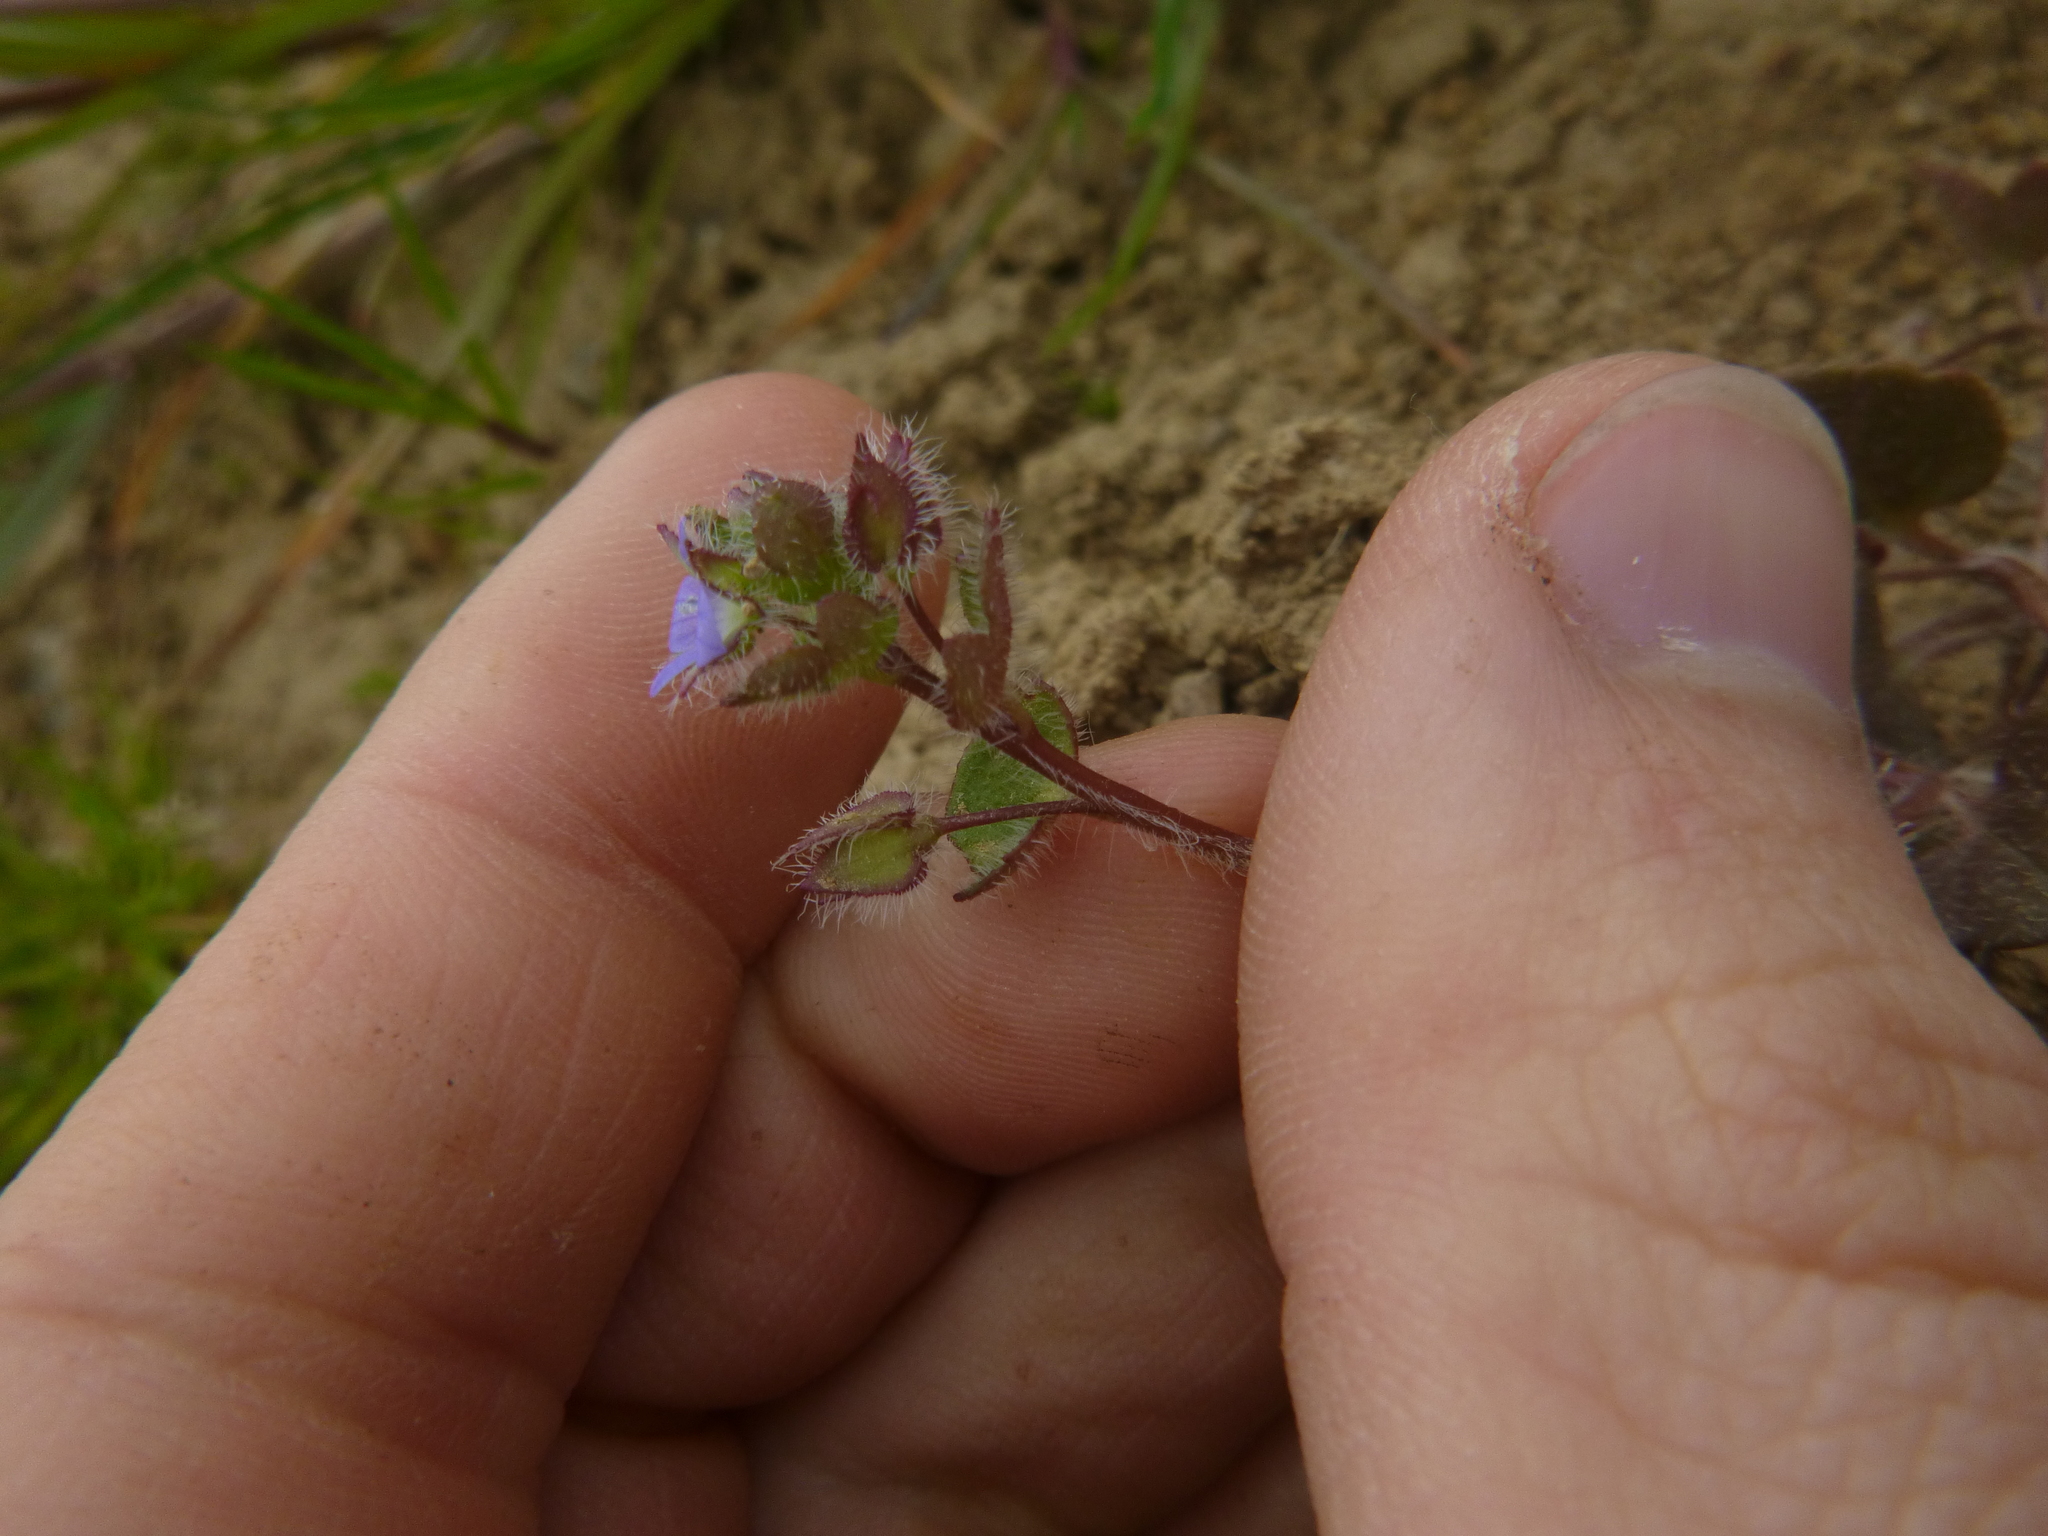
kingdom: Plantae
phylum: Tracheophyta
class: Magnoliopsida
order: Lamiales
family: Plantaginaceae
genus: Veronica
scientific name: Veronica hederifolia
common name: Ivy-leaved speedwell
